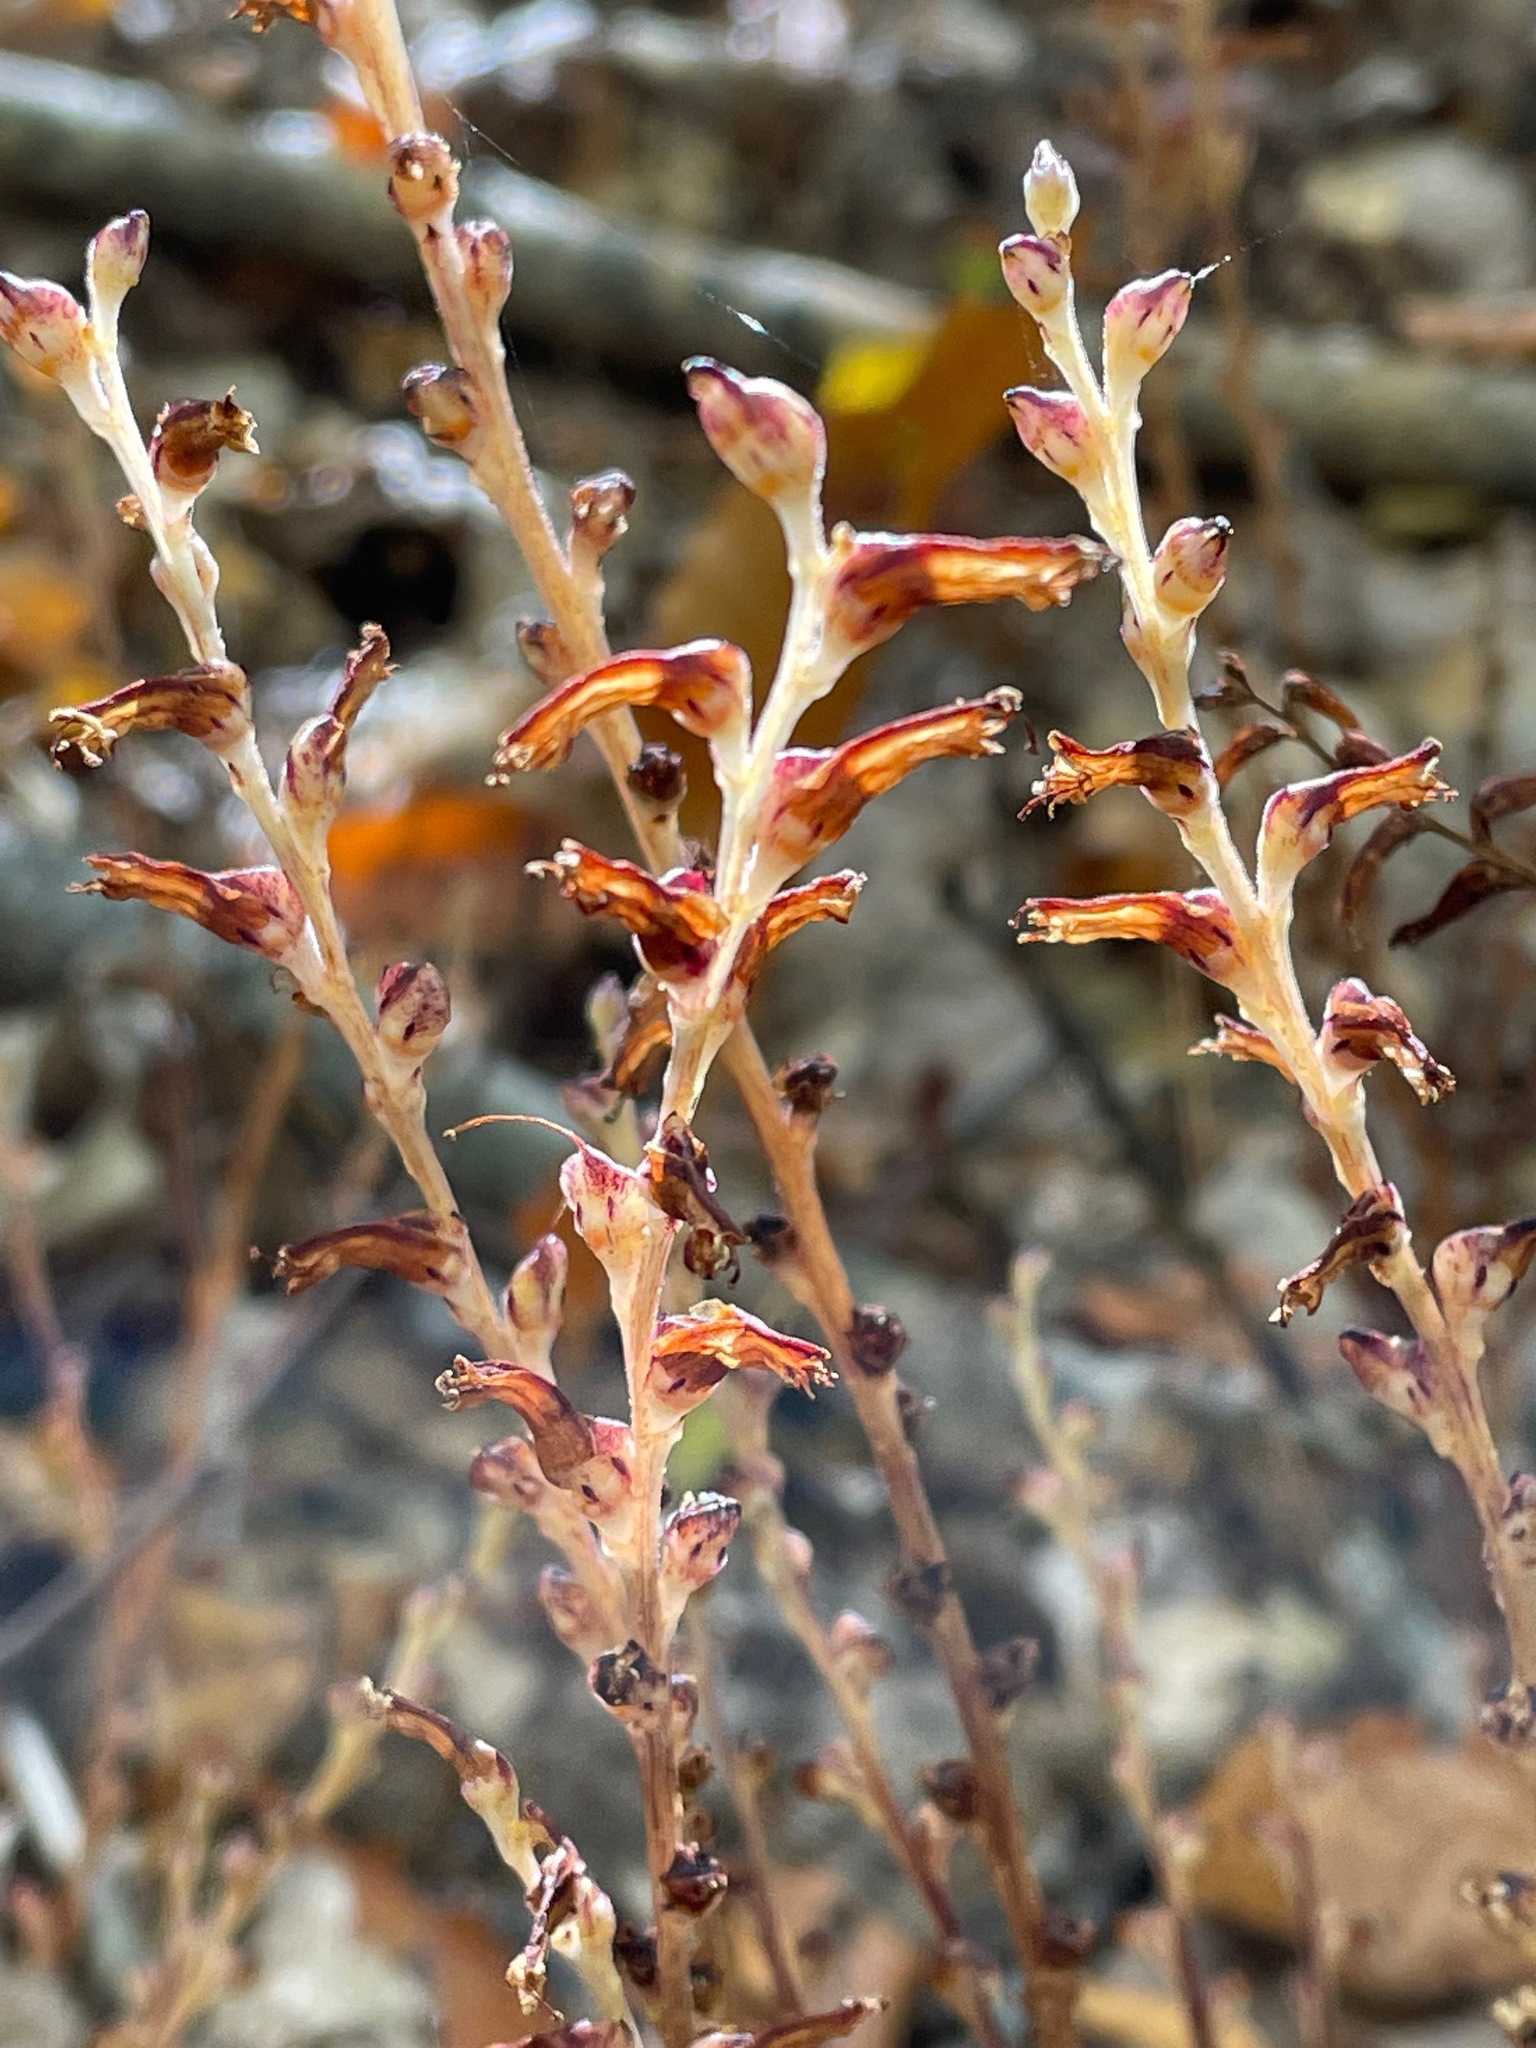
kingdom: Plantae
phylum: Tracheophyta
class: Magnoliopsida
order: Lamiales
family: Orobanchaceae
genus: Epifagus
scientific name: Epifagus virginiana
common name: Beechdrops
